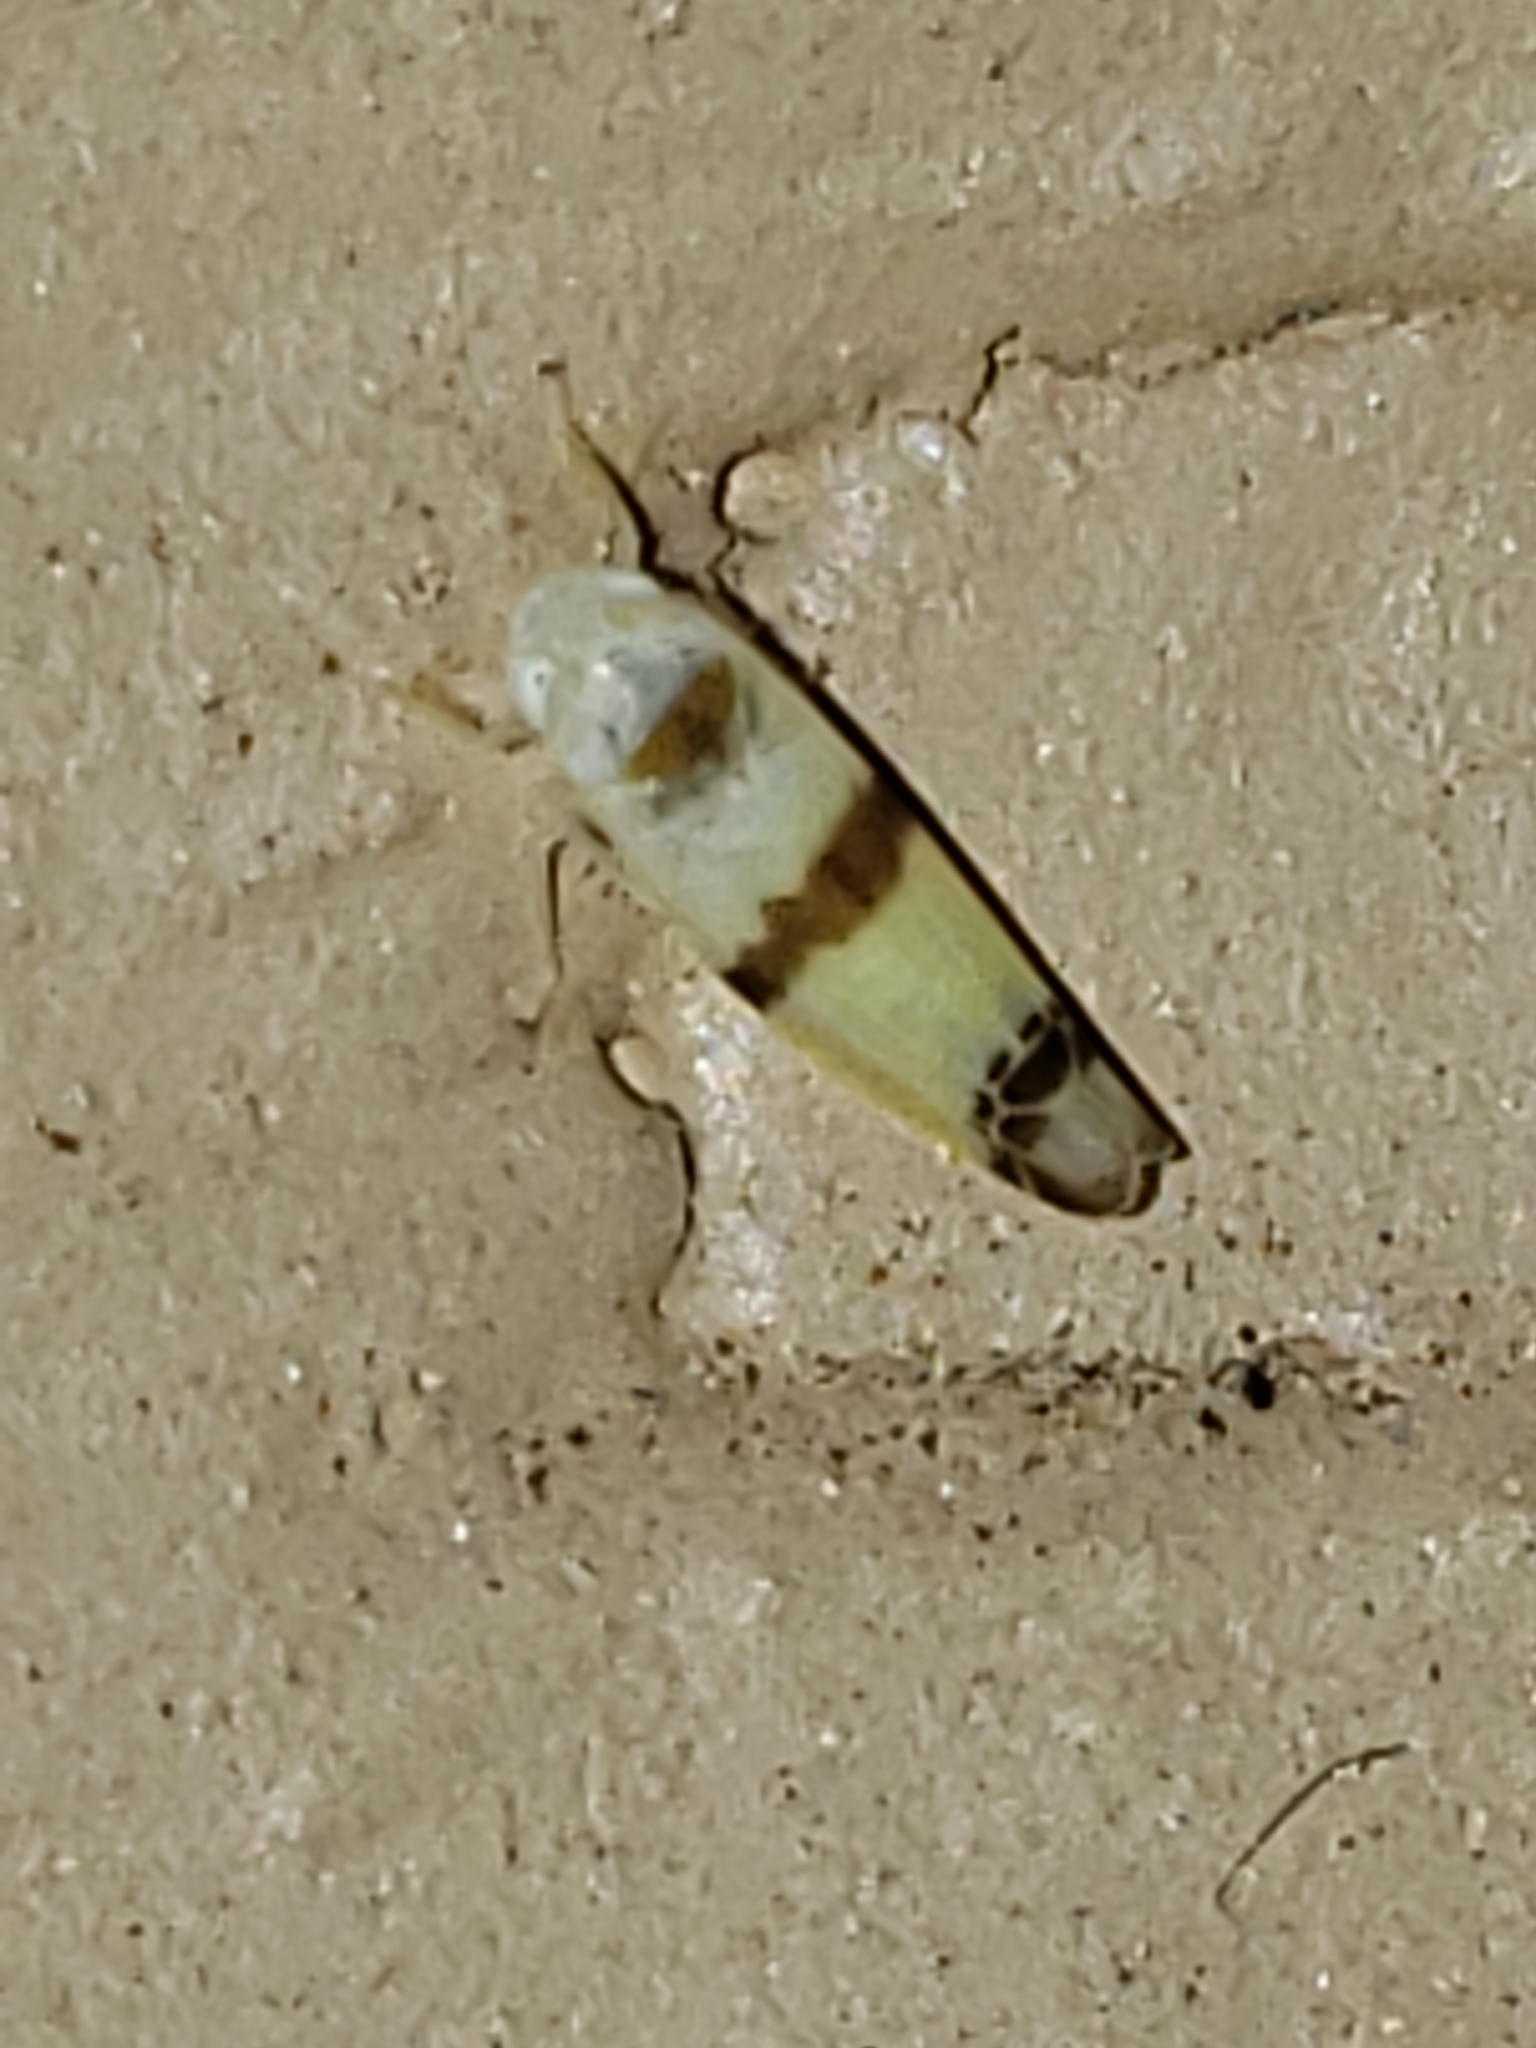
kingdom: Animalia
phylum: Arthropoda
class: Insecta
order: Hemiptera
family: Cicadellidae
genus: Empoa
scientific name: Empoa gillettei
